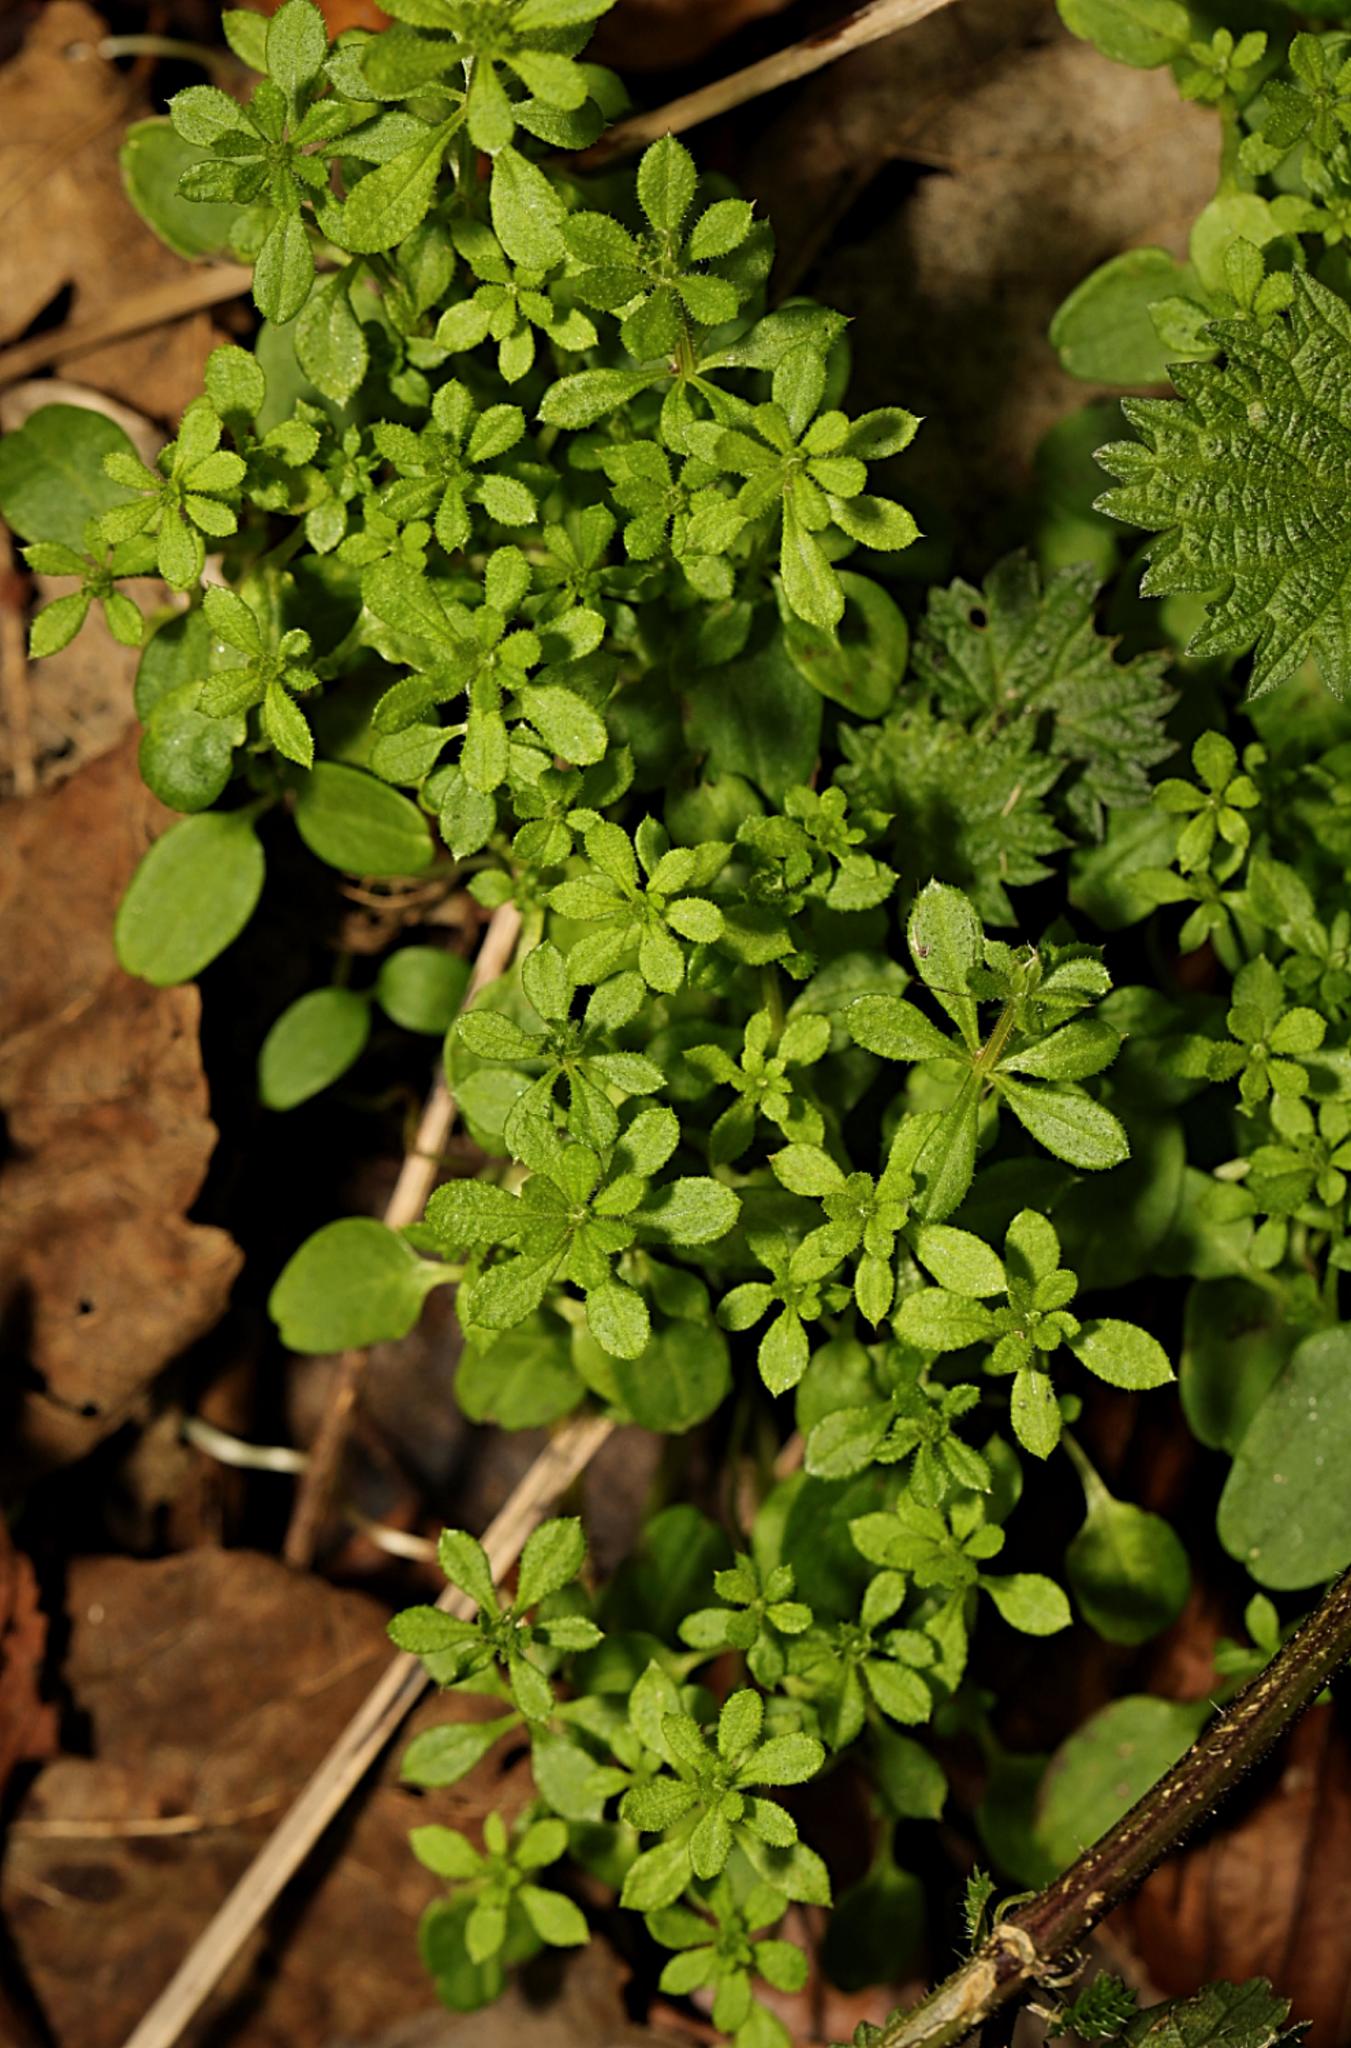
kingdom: Plantae
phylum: Tracheophyta
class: Magnoliopsida
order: Gentianales
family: Rubiaceae
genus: Galium
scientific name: Galium aparine
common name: Cleavers
